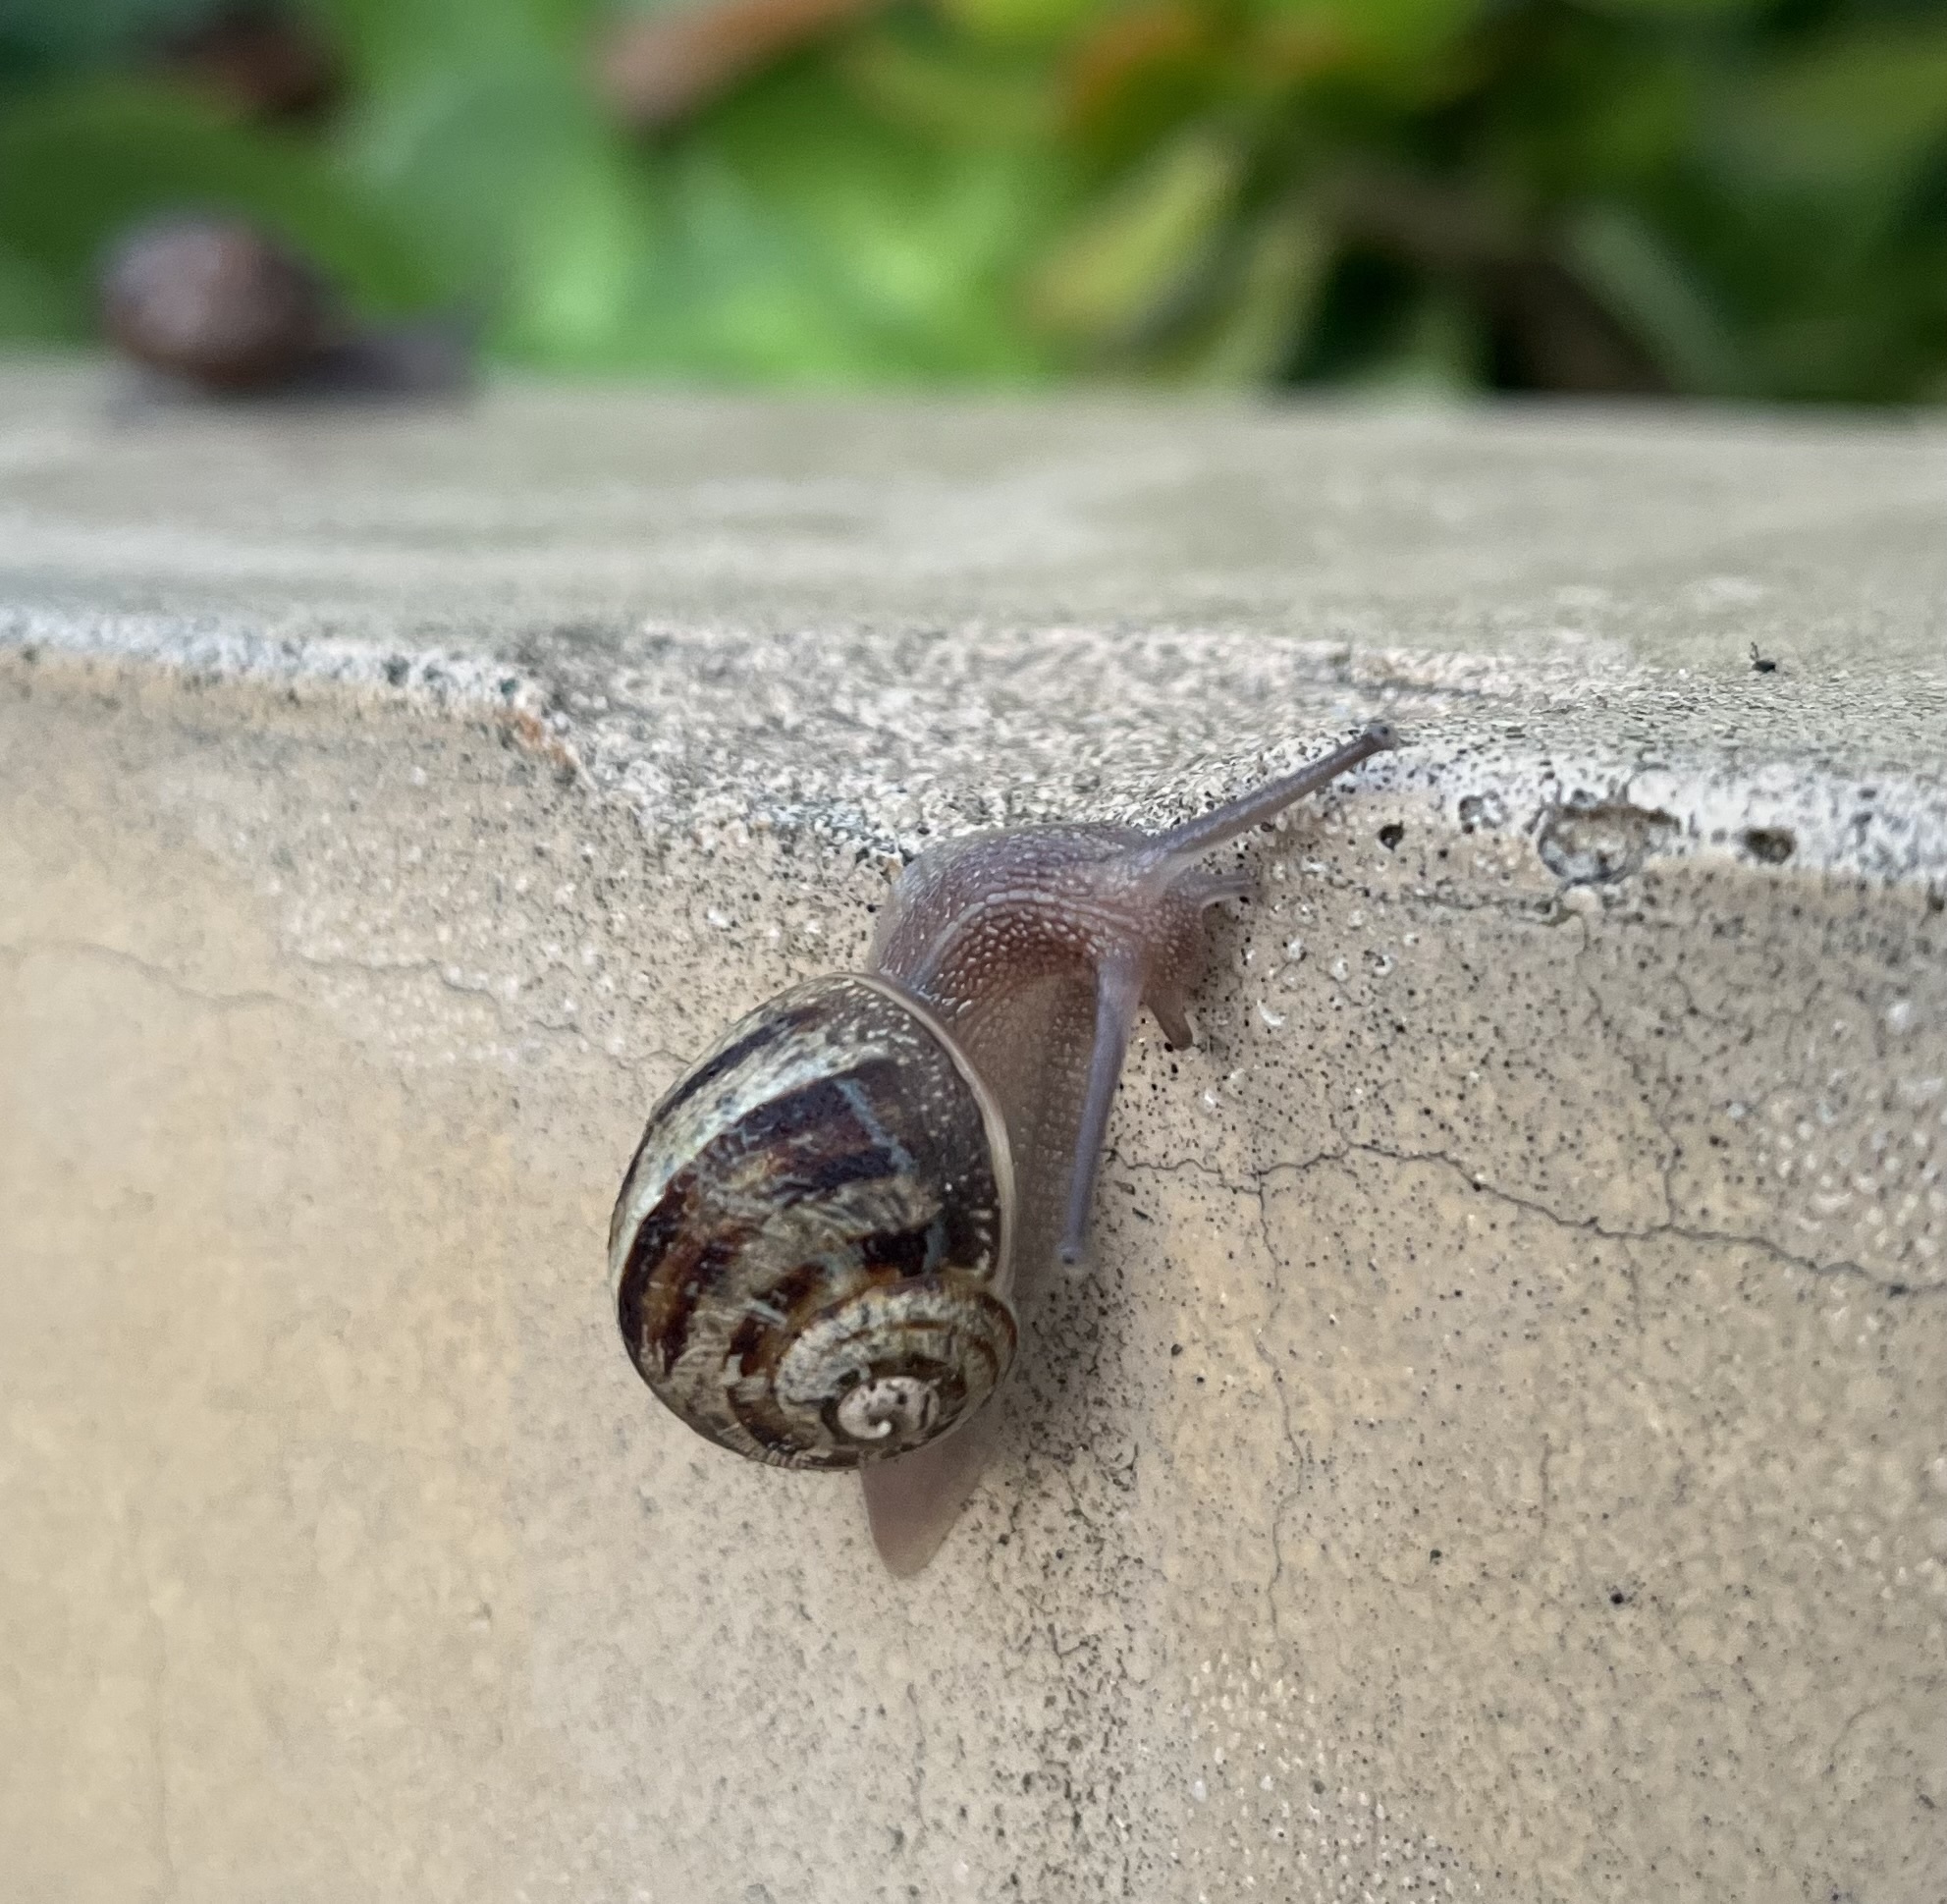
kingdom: Animalia
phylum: Mollusca
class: Gastropoda
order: Stylommatophora
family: Helicidae
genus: Cornu
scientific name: Cornu aspersum
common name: Brown garden snail
